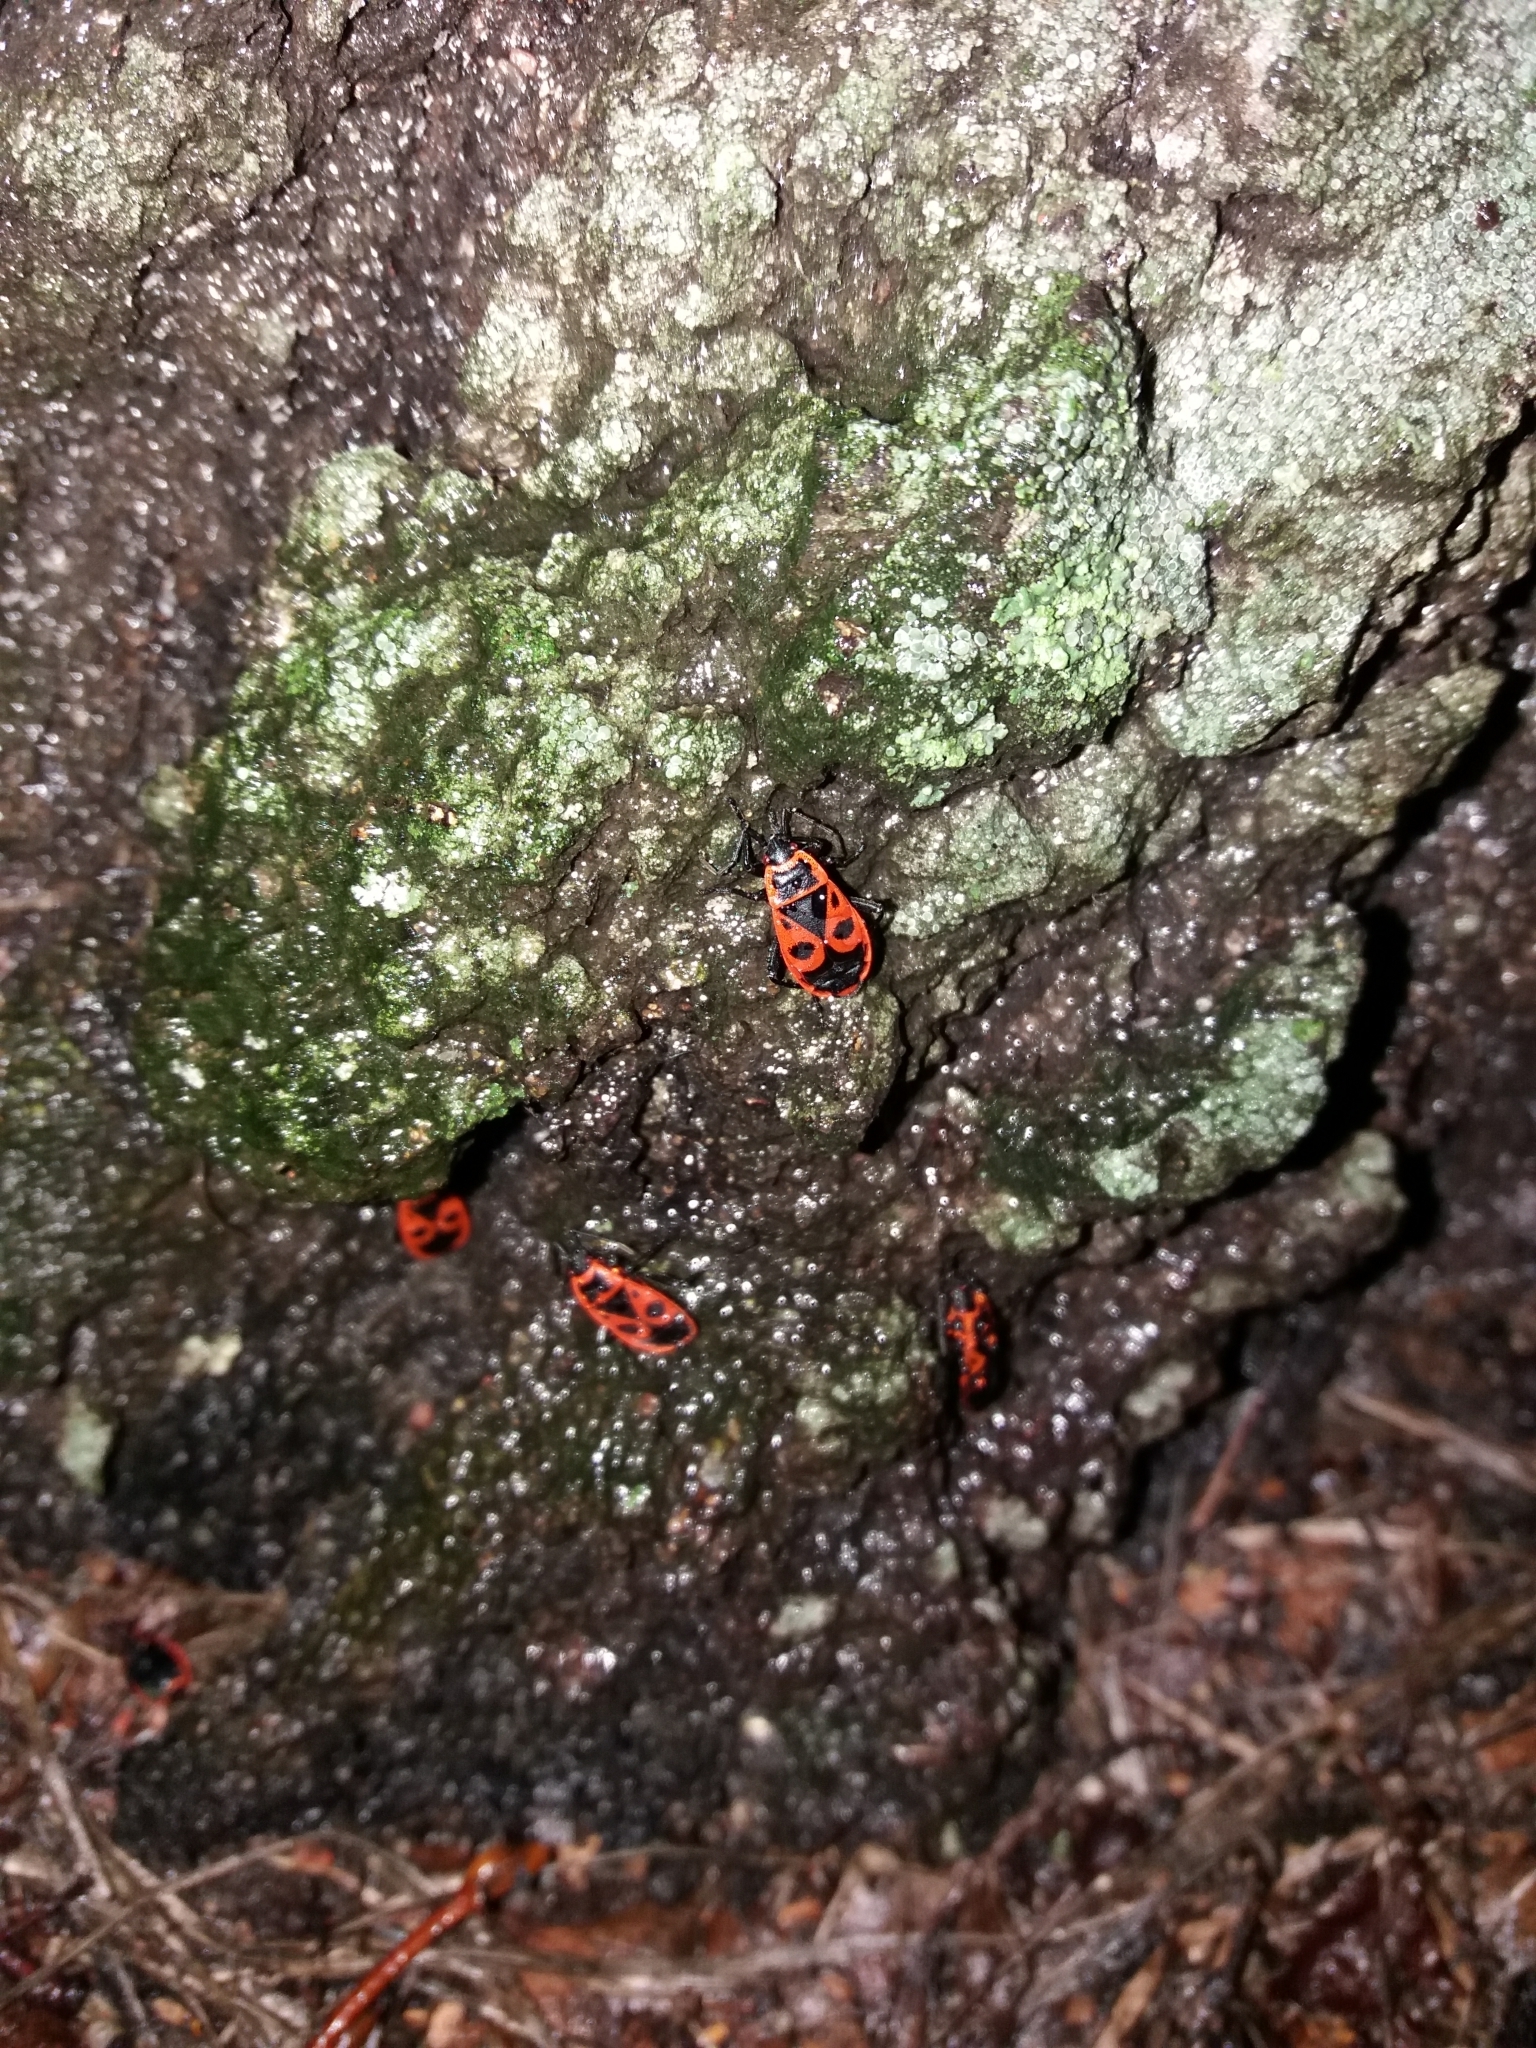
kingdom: Animalia
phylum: Arthropoda
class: Insecta
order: Hemiptera
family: Pyrrhocoridae
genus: Pyrrhocoris
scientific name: Pyrrhocoris apterus
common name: Firebug
